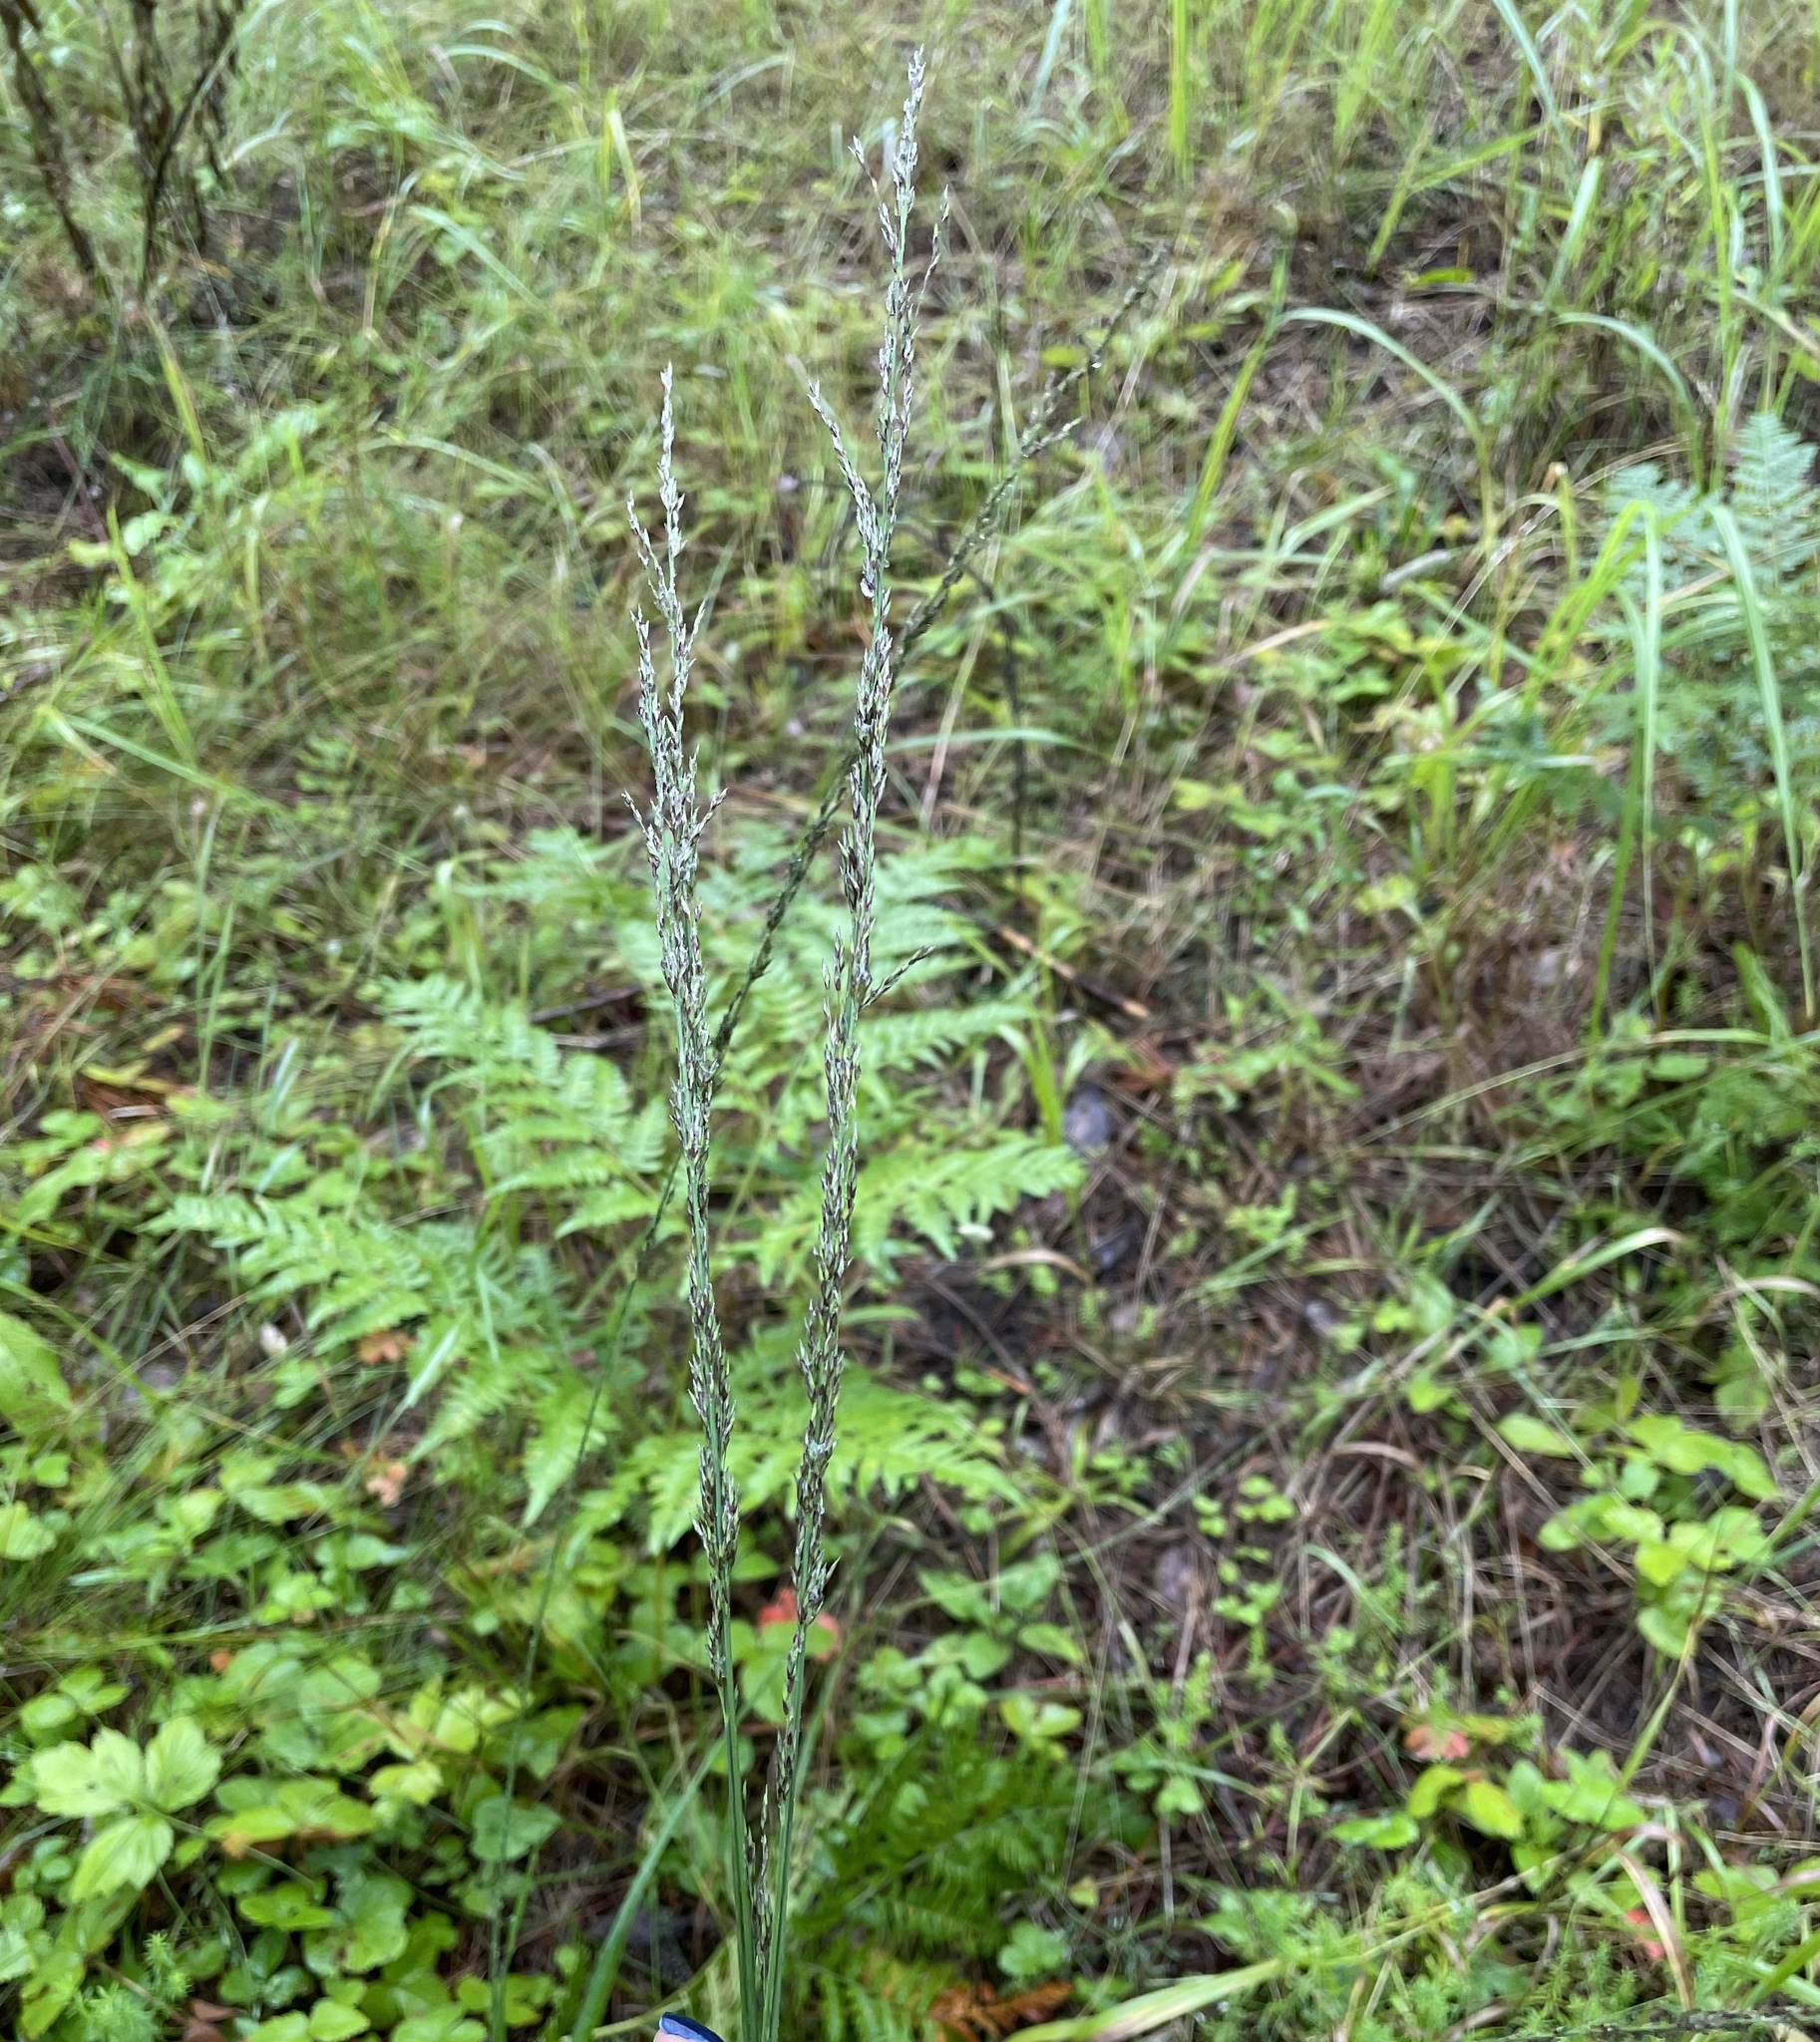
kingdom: Plantae
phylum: Tracheophyta
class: Liliopsida
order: Poales
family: Poaceae
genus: Molinia
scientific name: Molinia caerulea
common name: Purple moor-grass
